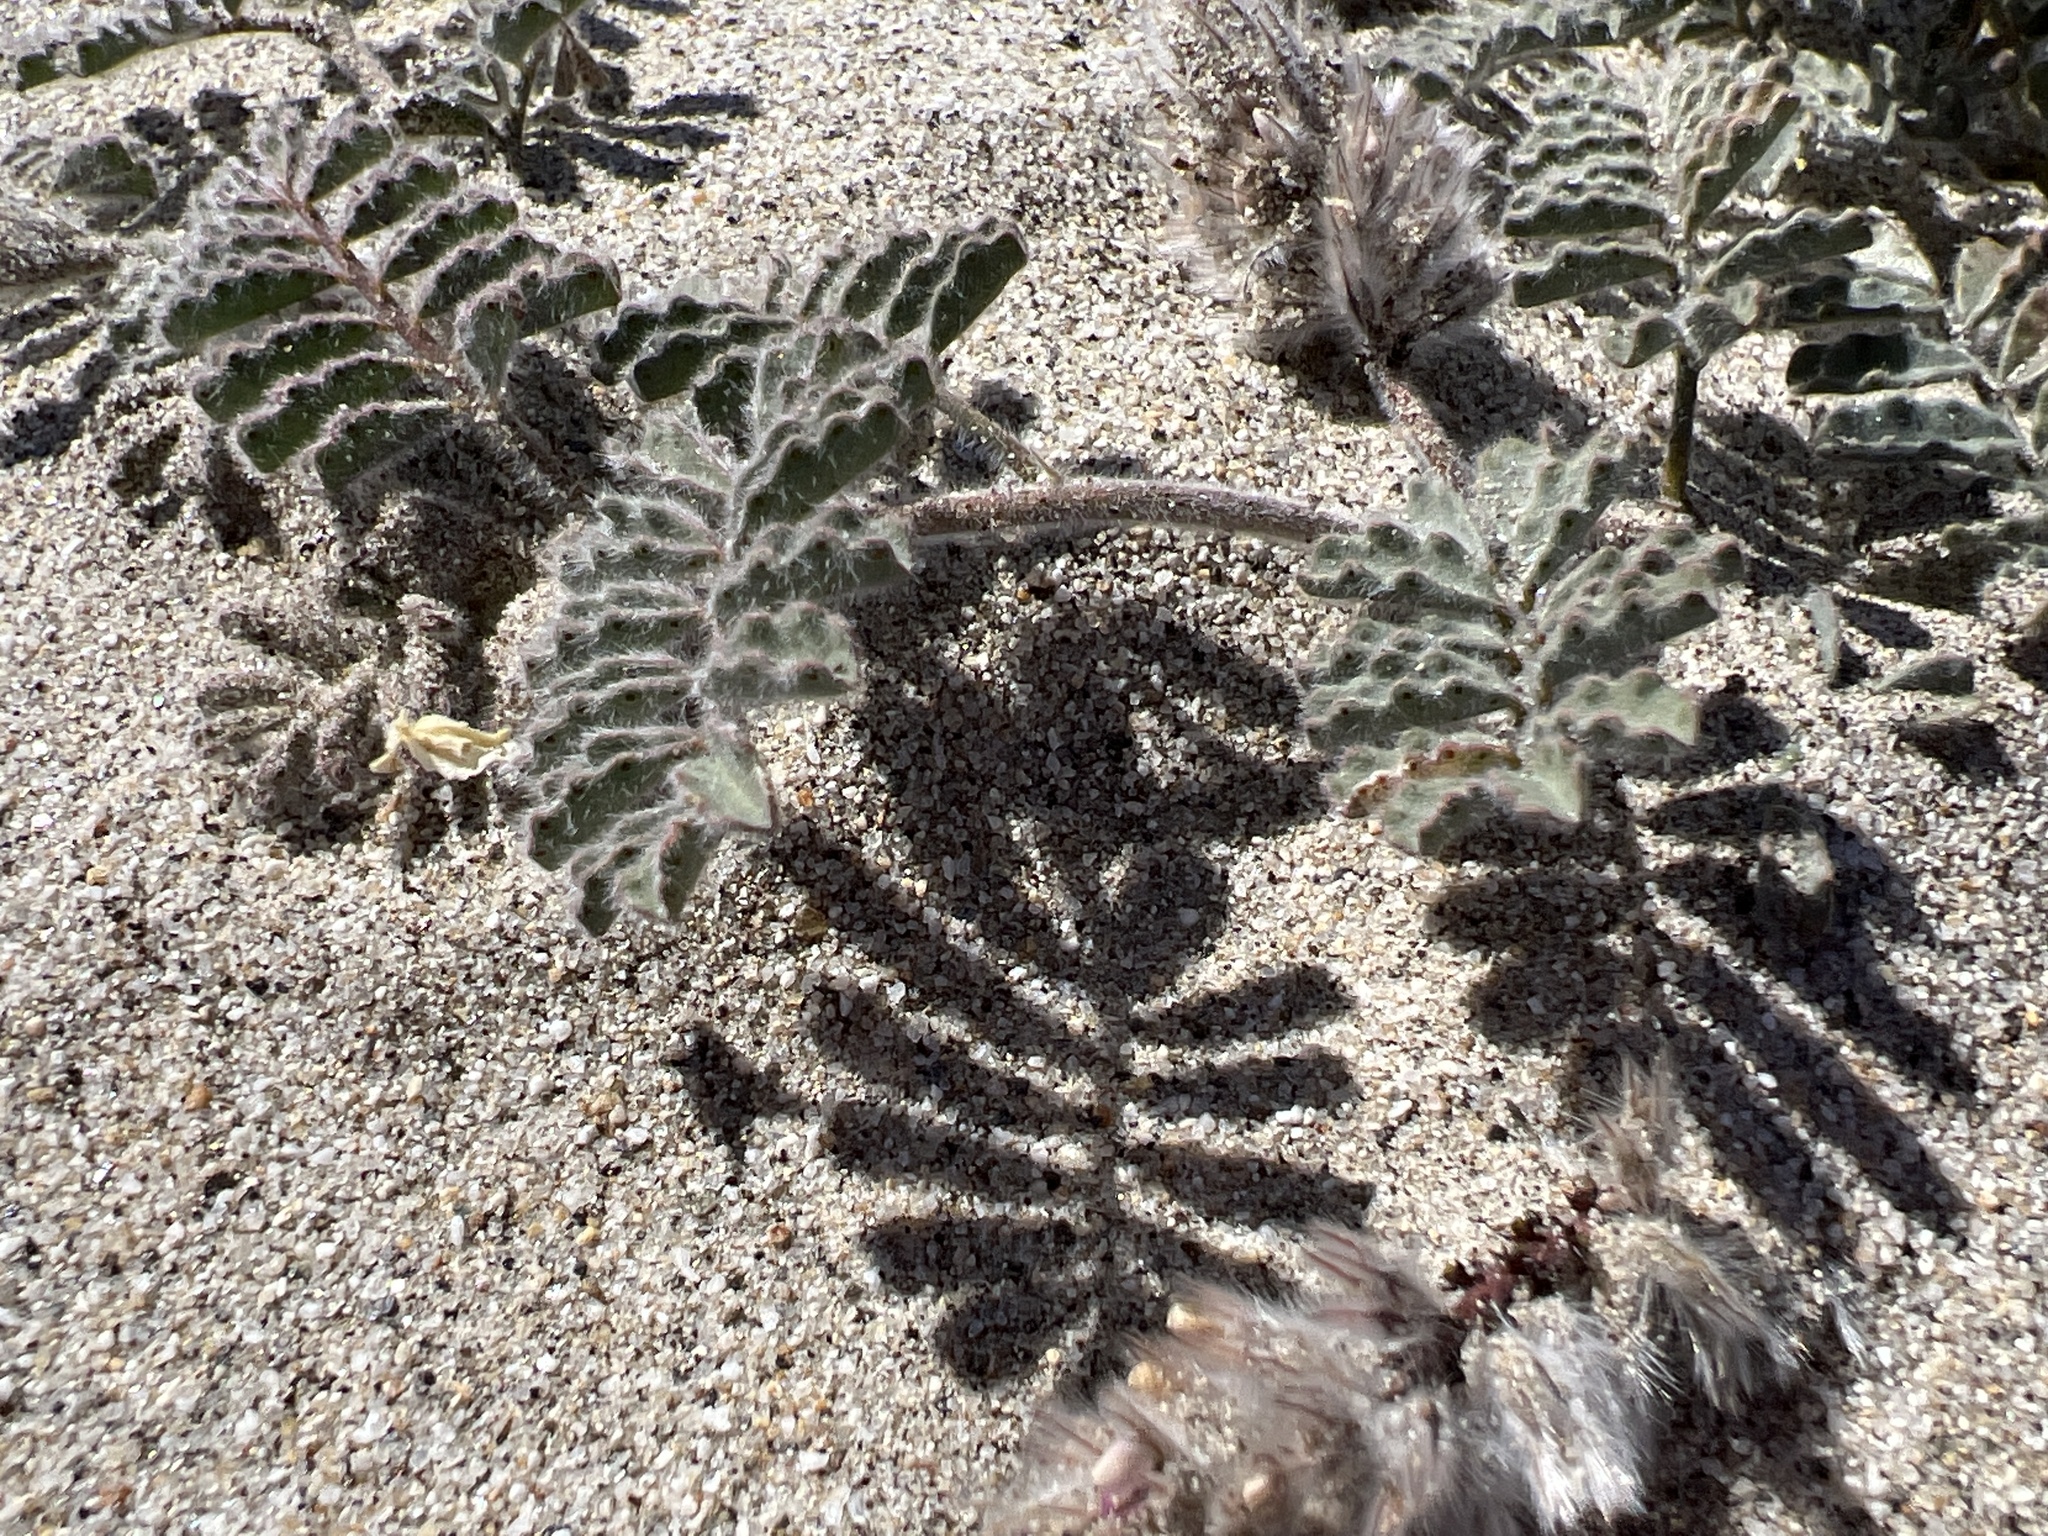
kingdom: Plantae
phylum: Tracheophyta
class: Magnoliopsida
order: Fabales
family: Fabaceae
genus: Dalea
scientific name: Dalea mollissima
